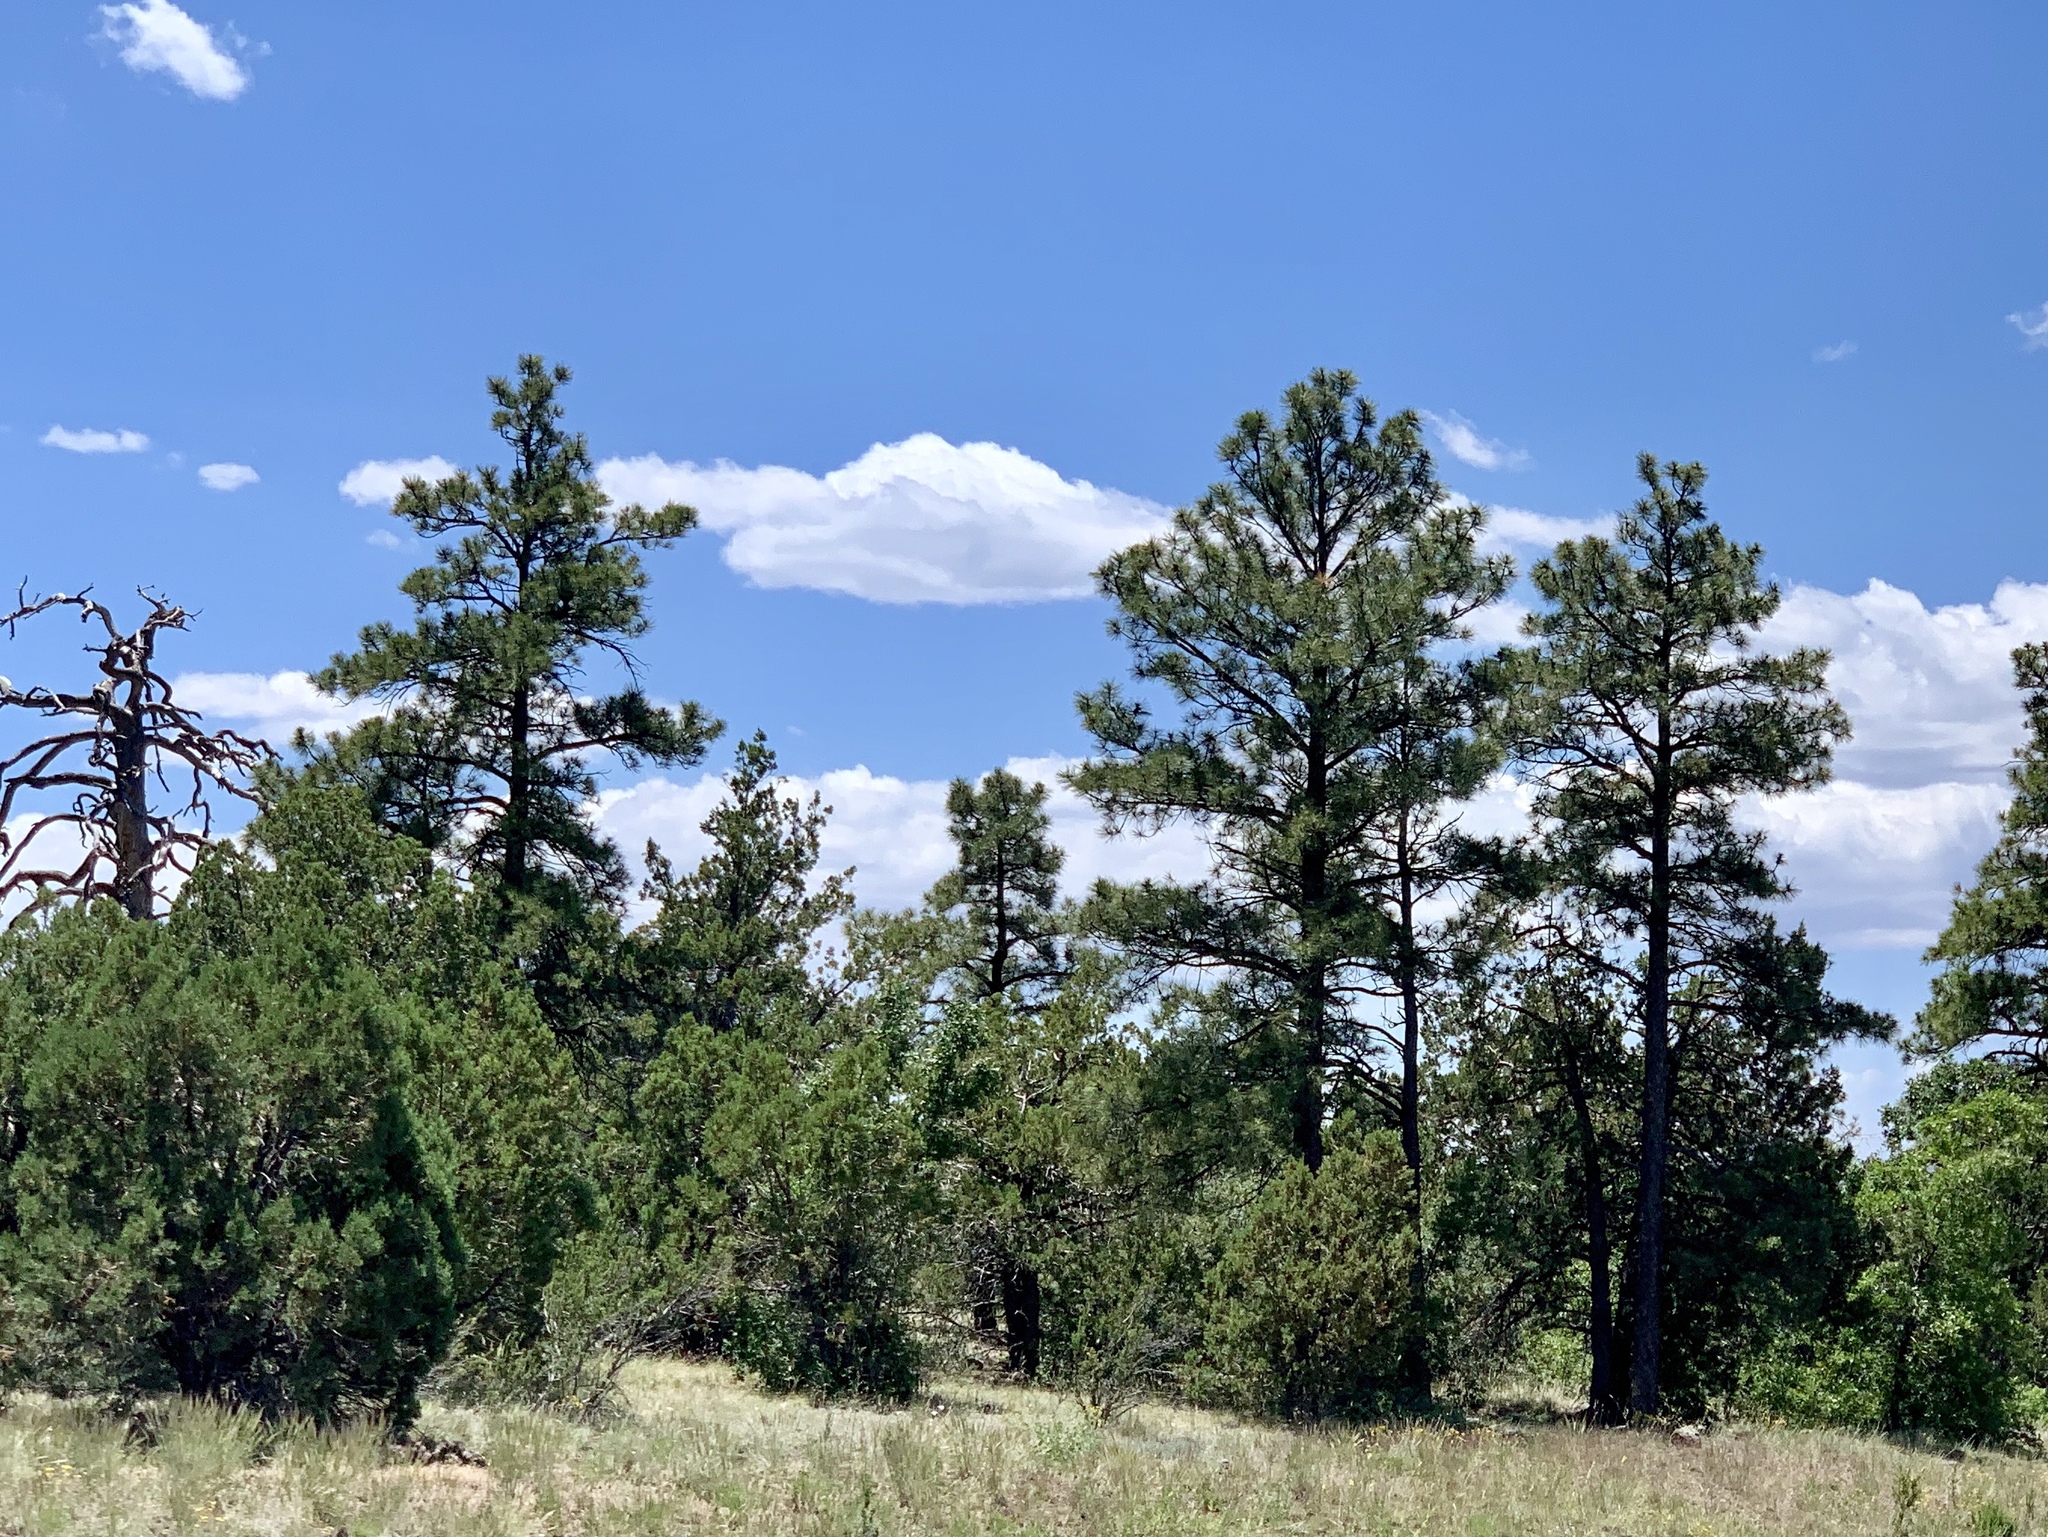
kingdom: Plantae
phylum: Tracheophyta
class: Pinopsida
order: Pinales
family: Pinaceae
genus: Pinus
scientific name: Pinus ponderosa
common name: Western yellow-pine
